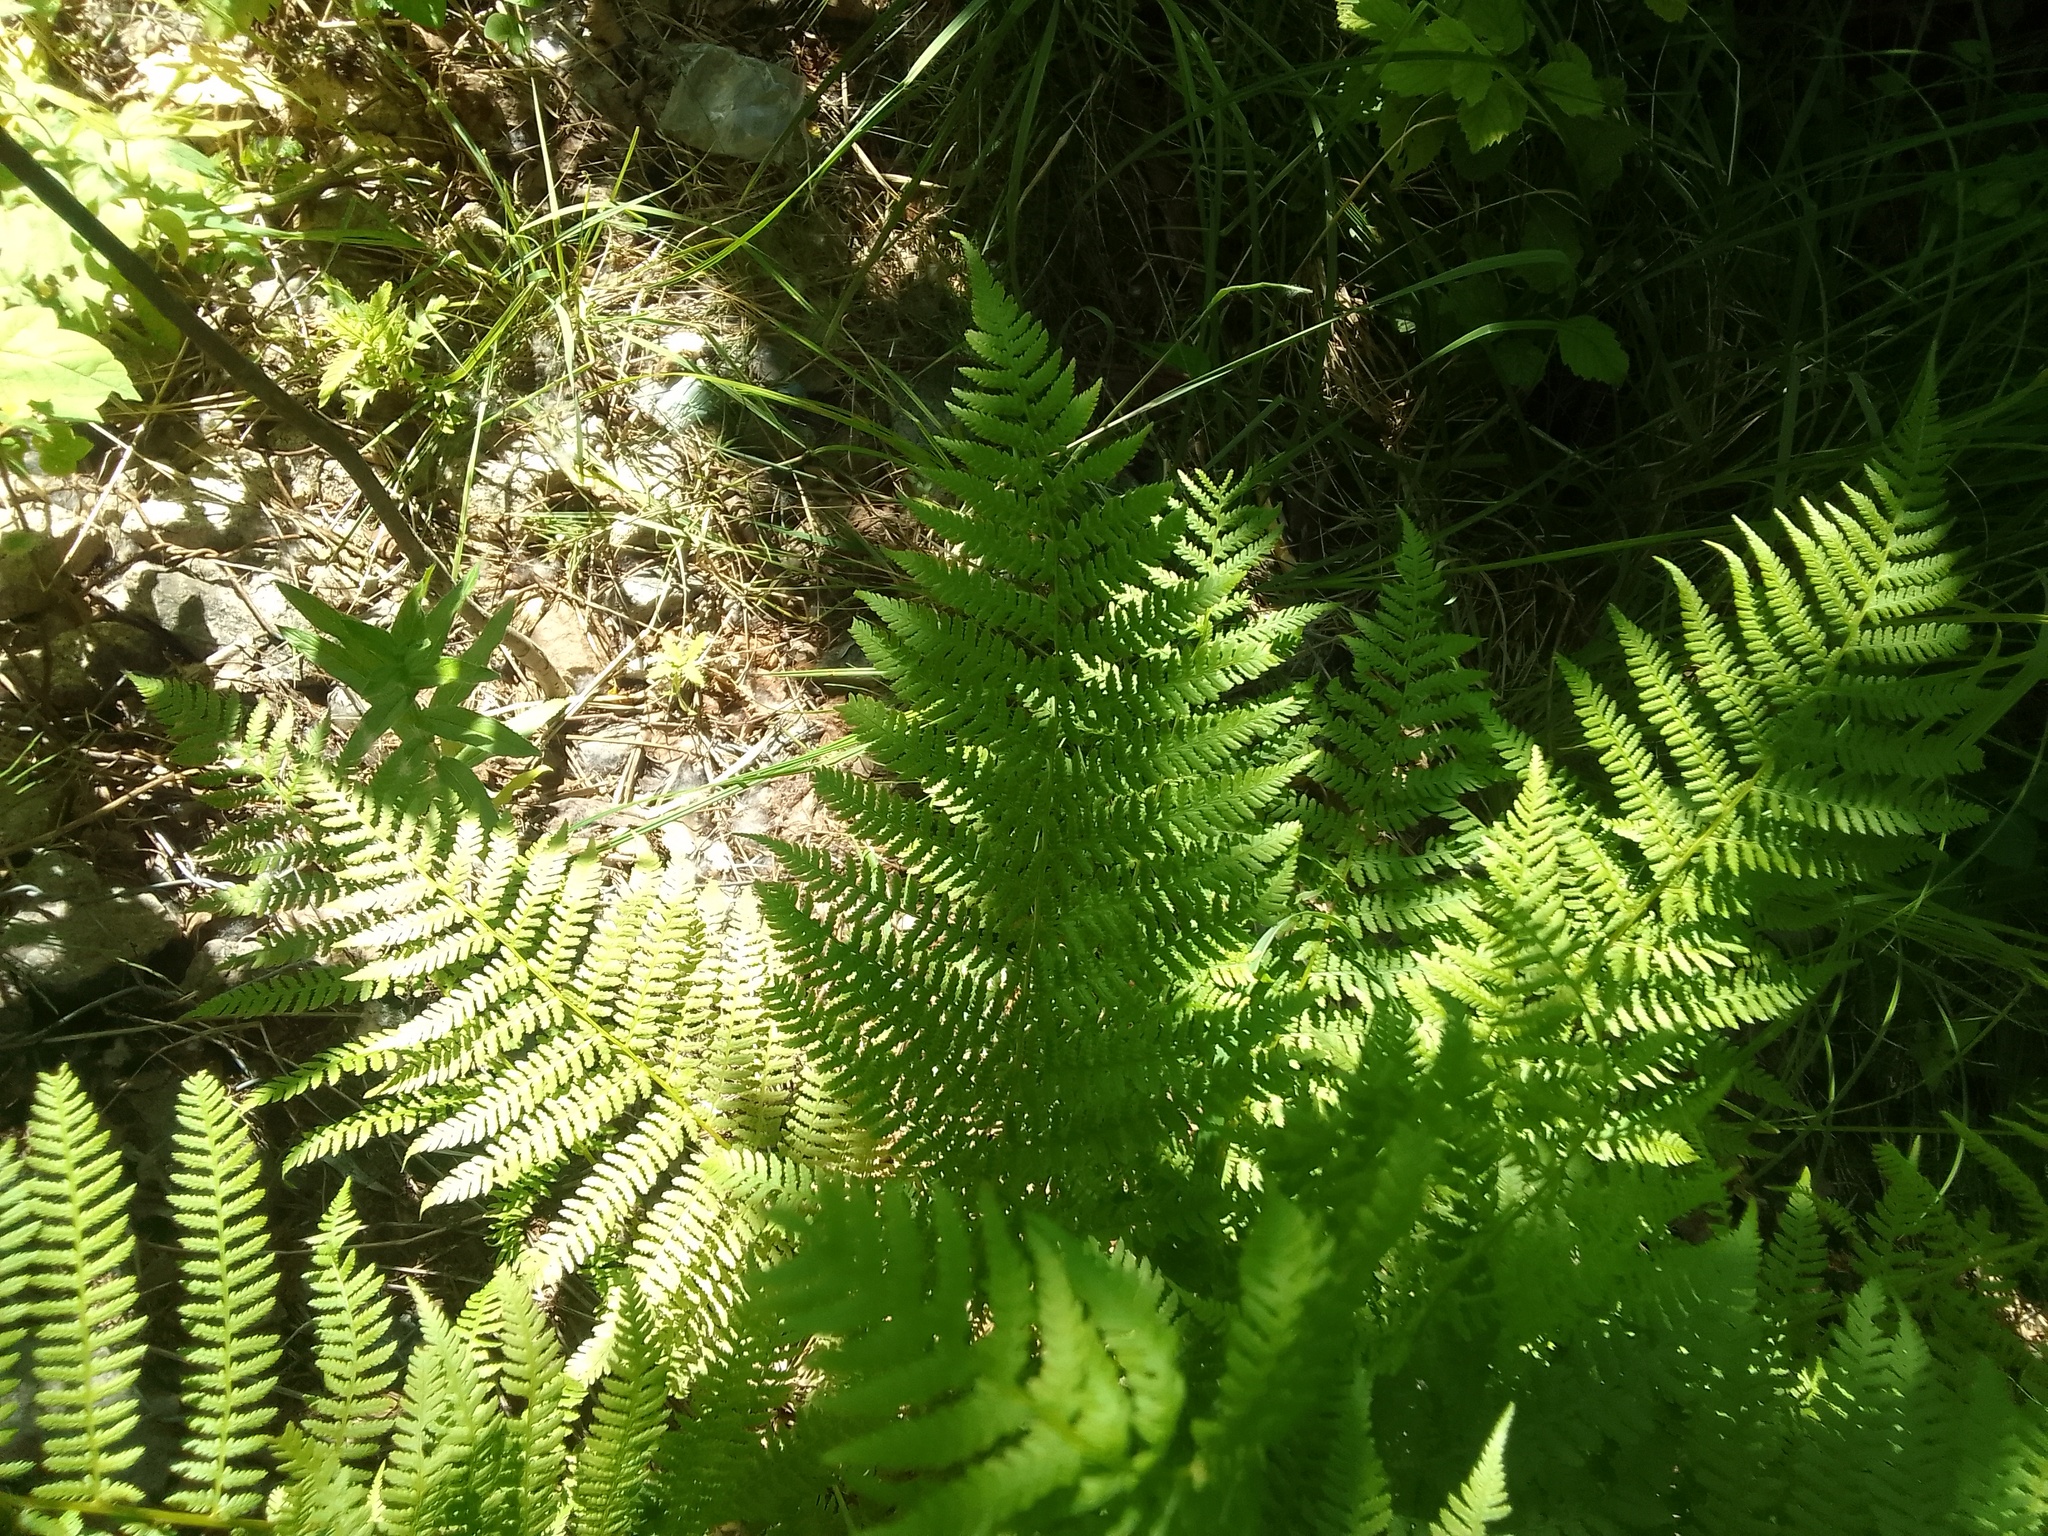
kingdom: Plantae
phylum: Tracheophyta
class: Polypodiopsida
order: Polypodiales
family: Athyriaceae
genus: Athyrium
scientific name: Athyrium filix-femina
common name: Lady fern
